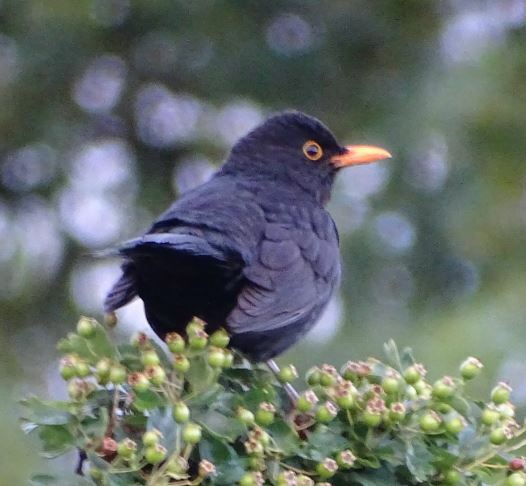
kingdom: Animalia
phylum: Chordata
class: Aves
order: Passeriformes
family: Turdidae
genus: Turdus
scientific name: Turdus merula
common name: Common blackbird
